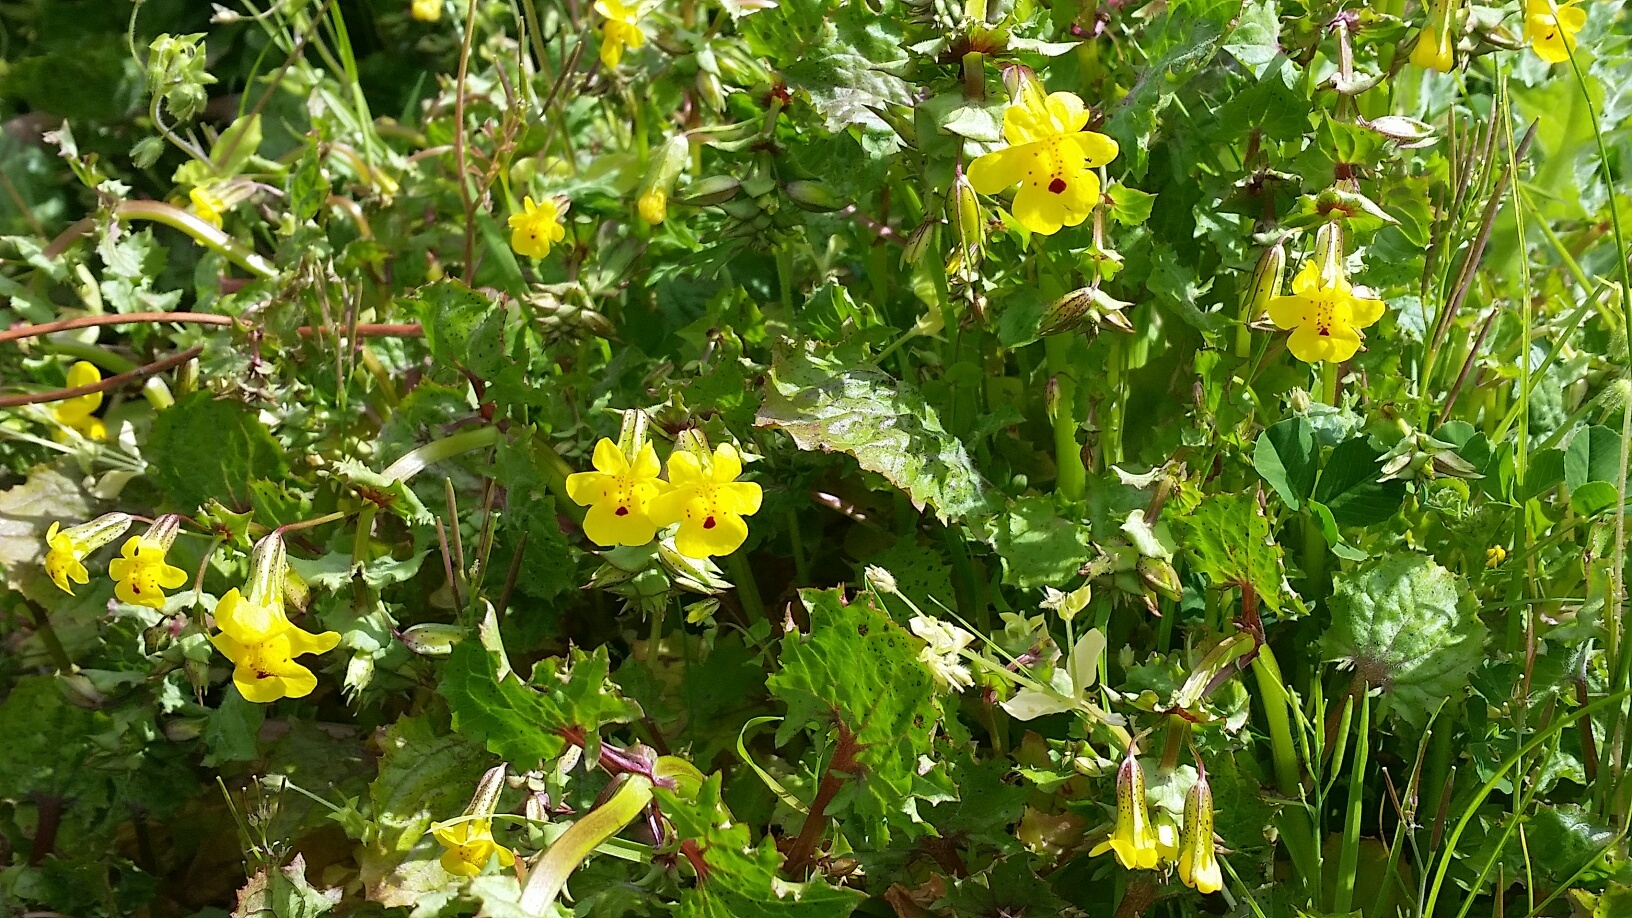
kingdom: Plantae
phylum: Tracheophyta
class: Magnoliopsida
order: Lamiales
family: Phrymaceae
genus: Erythranthe
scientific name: Erythranthe nasuta
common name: Sooke monkeyflower
